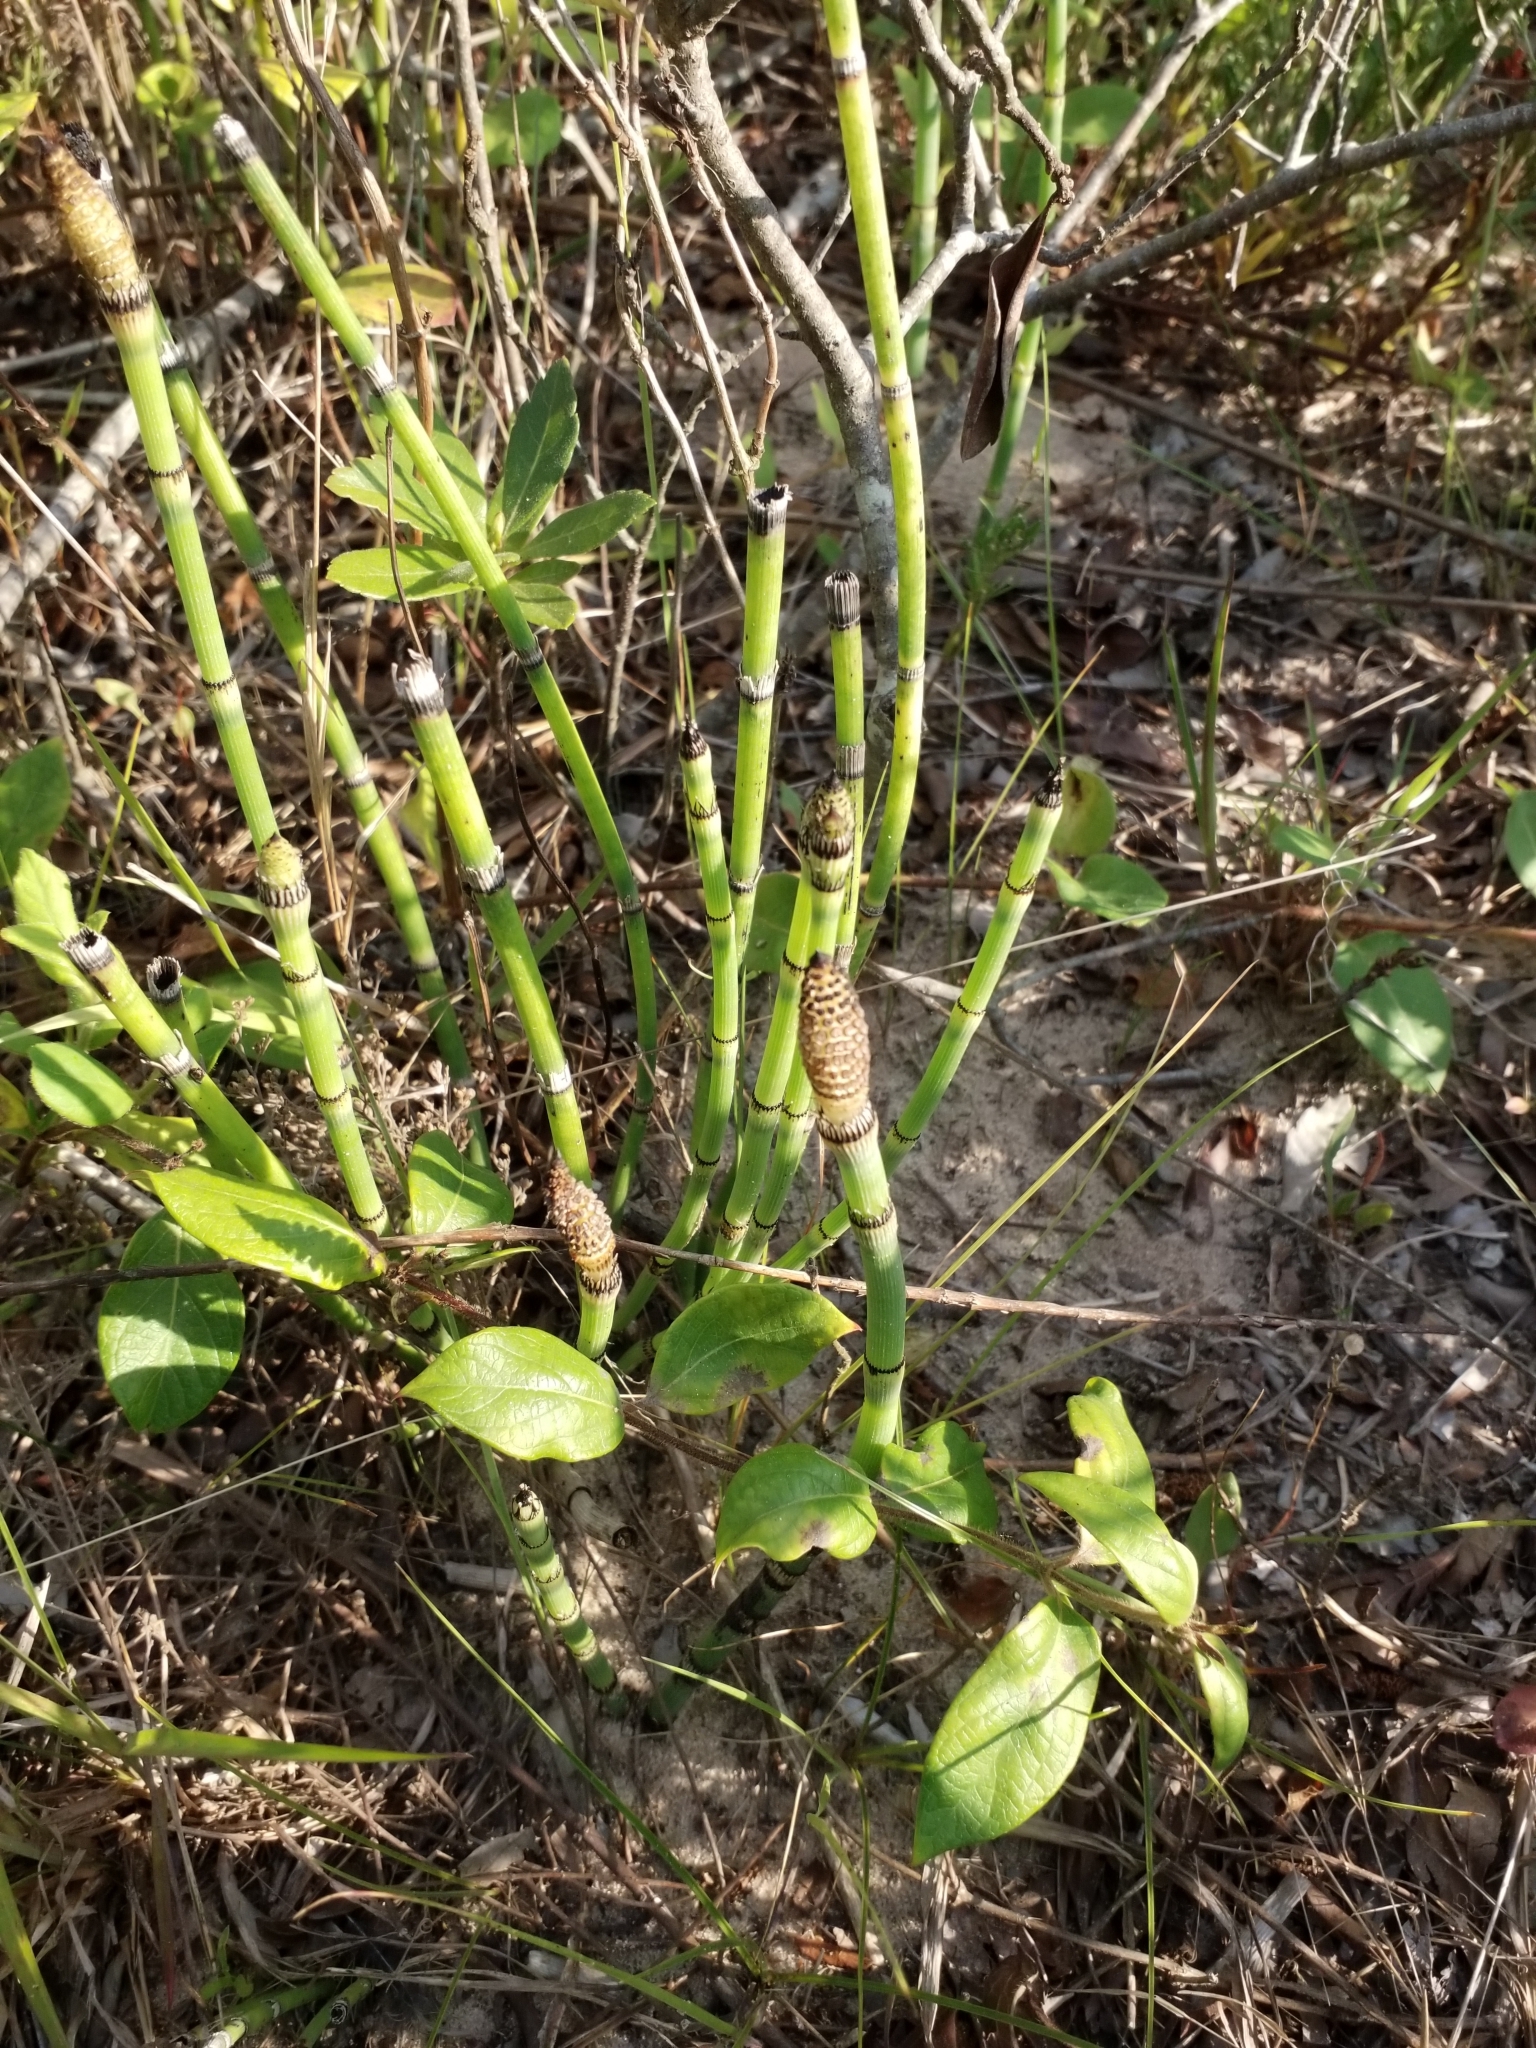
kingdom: Plantae
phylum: Tracheophyta
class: Polypodiopsida
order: Equisetales
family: Equisetaceae
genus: Equisetum
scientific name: Equisetum hyemale
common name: Rough horsetail
